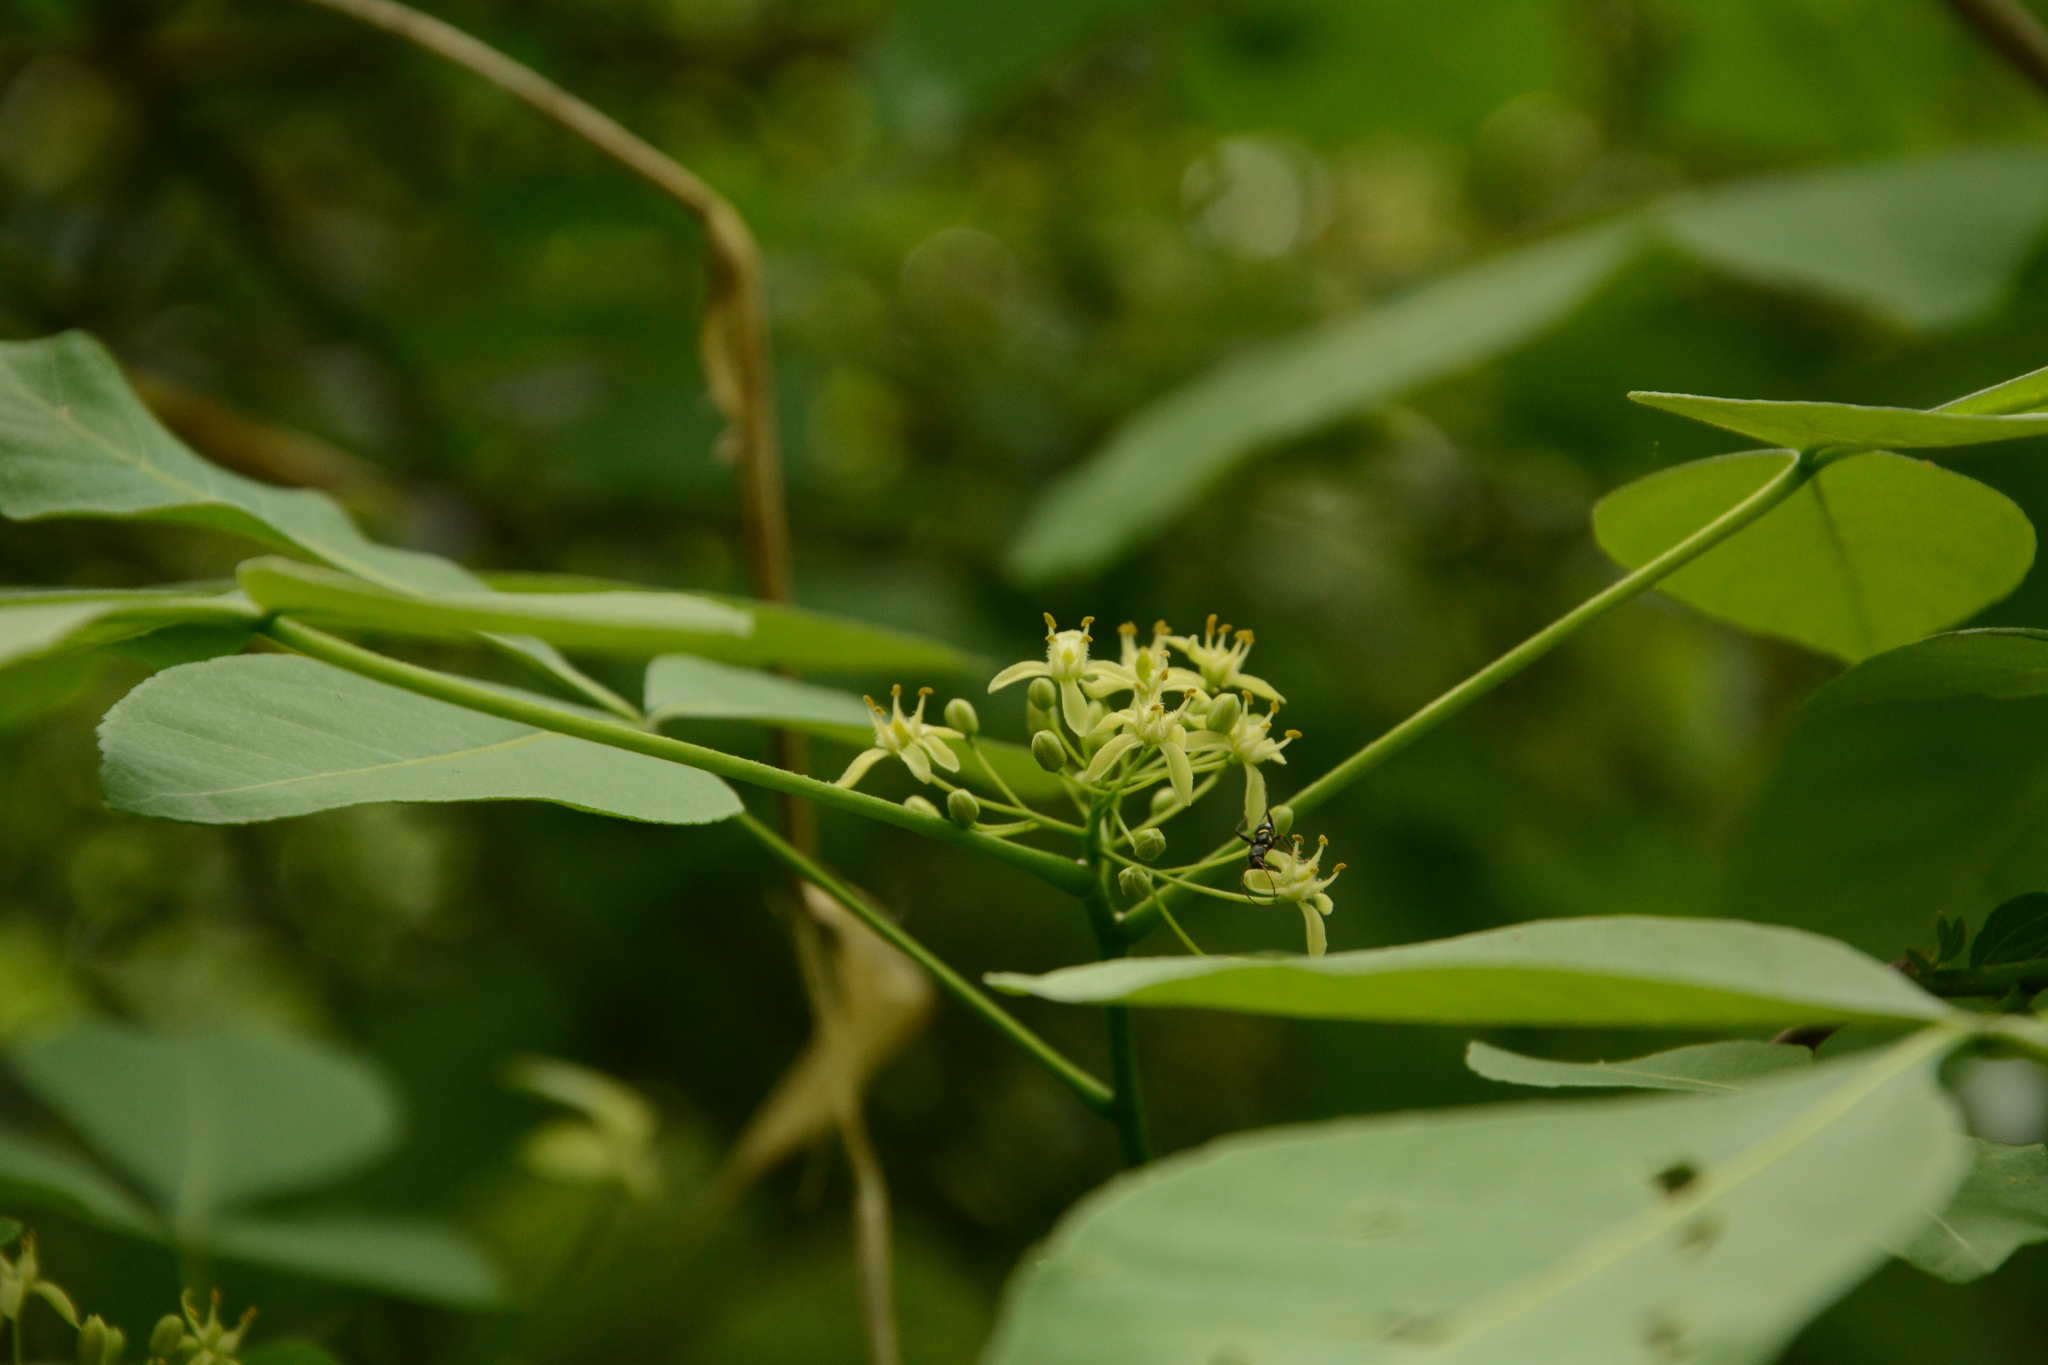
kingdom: Plantae
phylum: Tracheophyta
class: Magnoliopsida
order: Sapindales
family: Rutaceae
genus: Ptelea
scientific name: Ptelea trifoliata
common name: Common hop-tree
